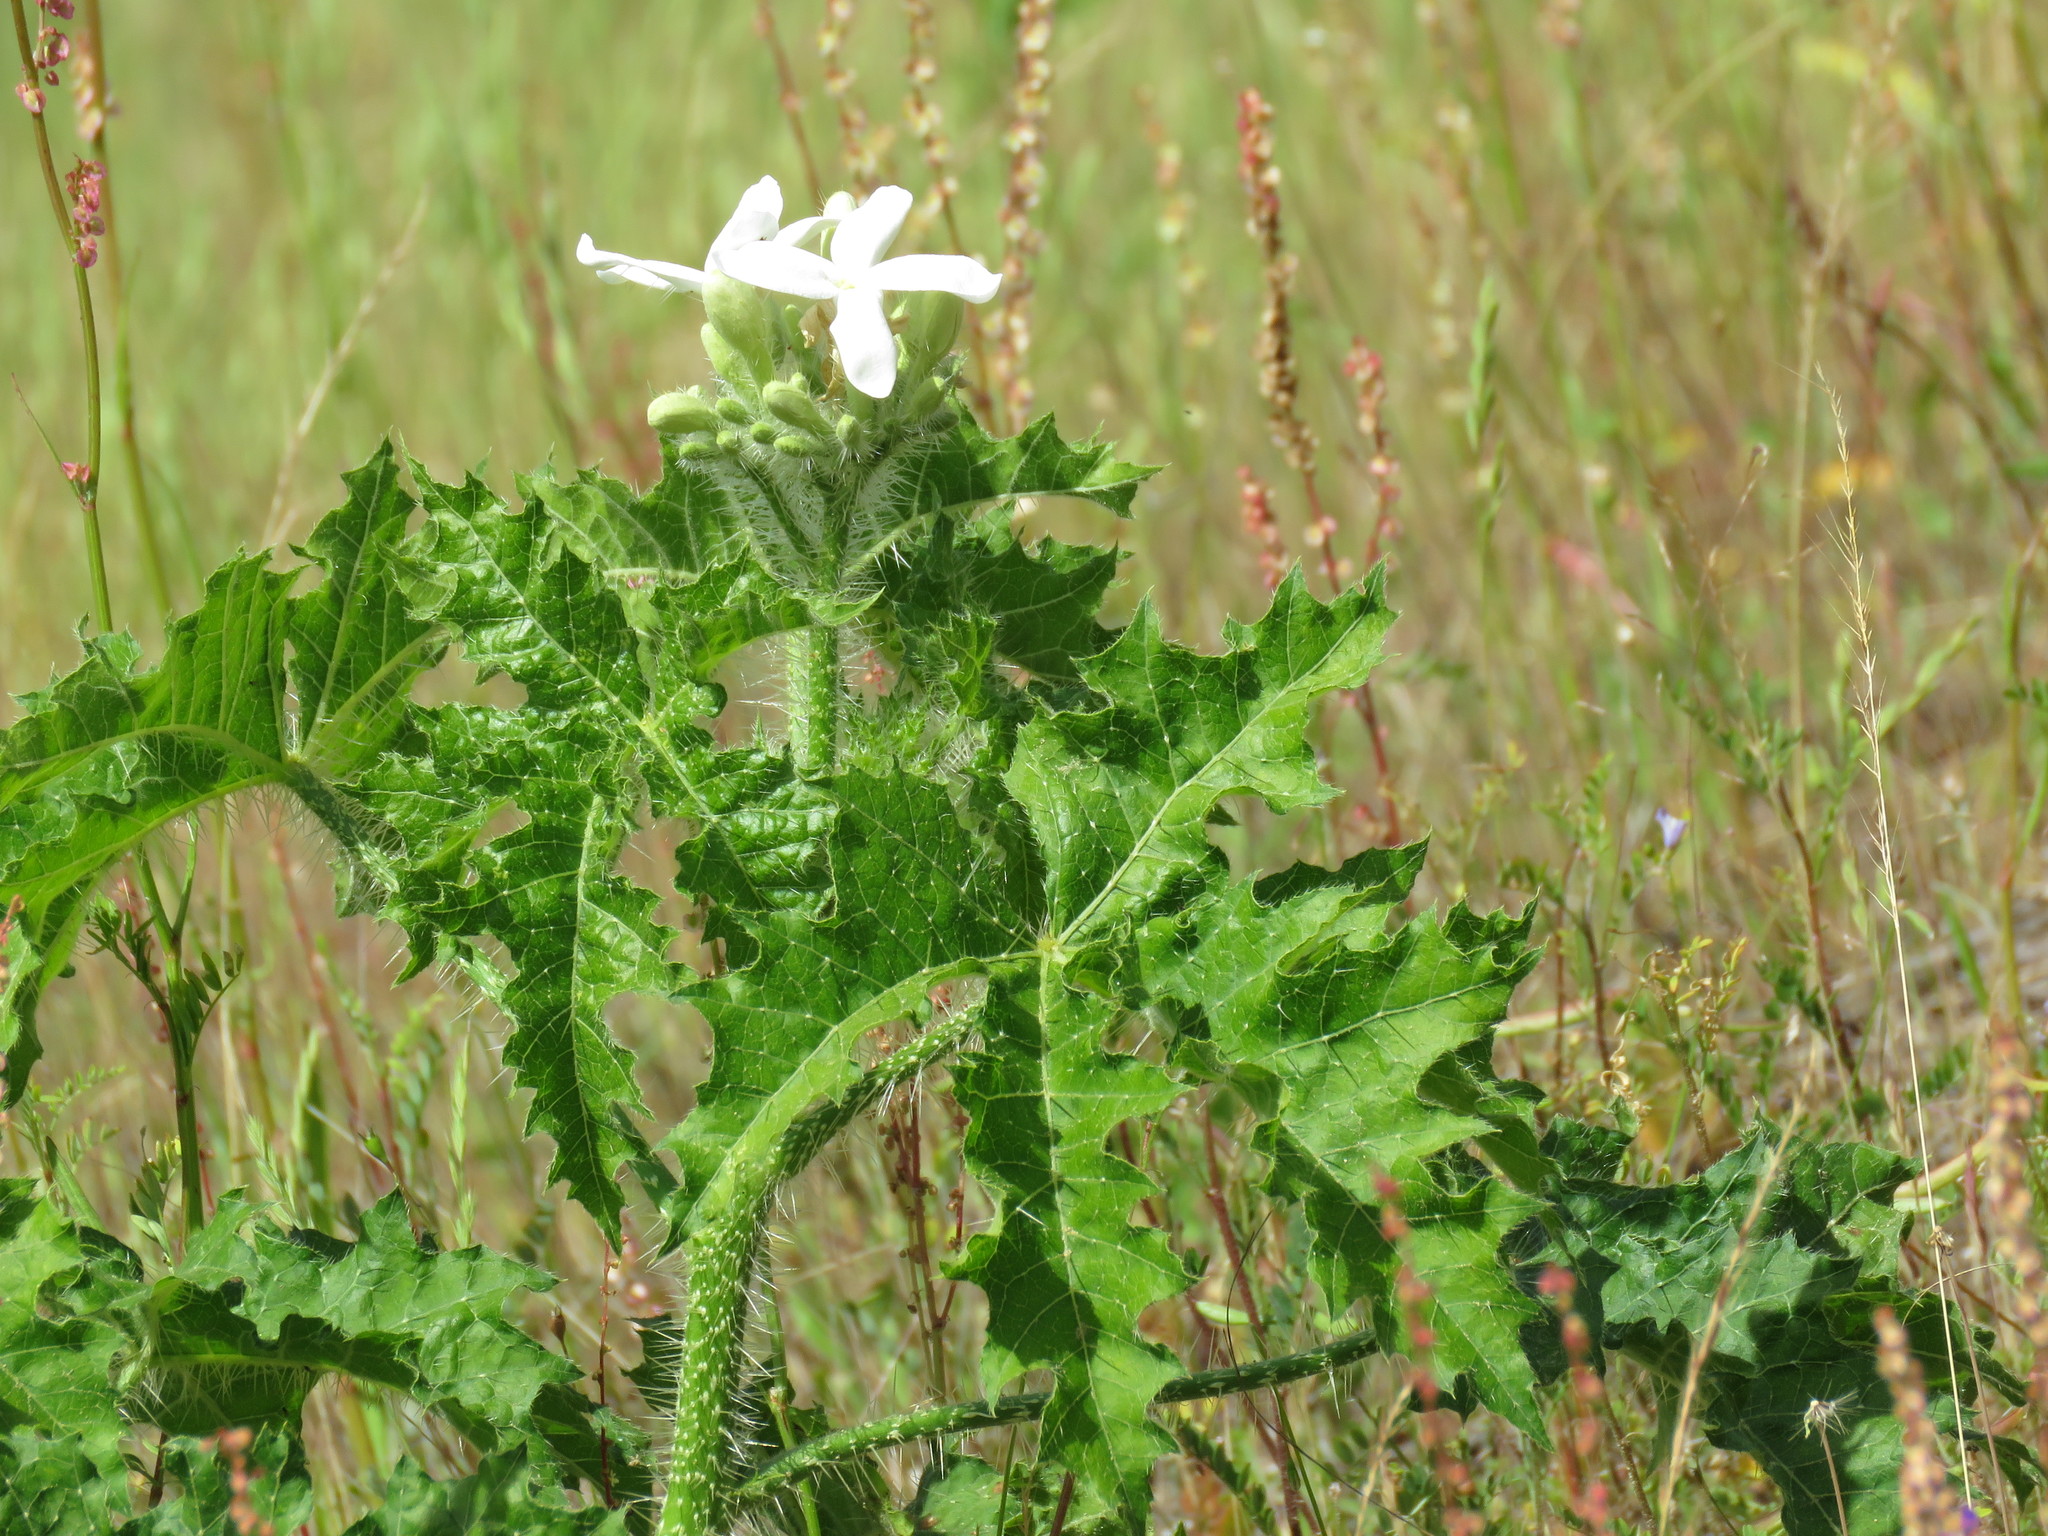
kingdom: Plantae
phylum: Tracheophyta
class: Magnoliopsida
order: Malpighiales
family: Euphorbiaceae
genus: Cnidoscolus
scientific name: Cnidoscolus texanus
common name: Texas bull-nettle
